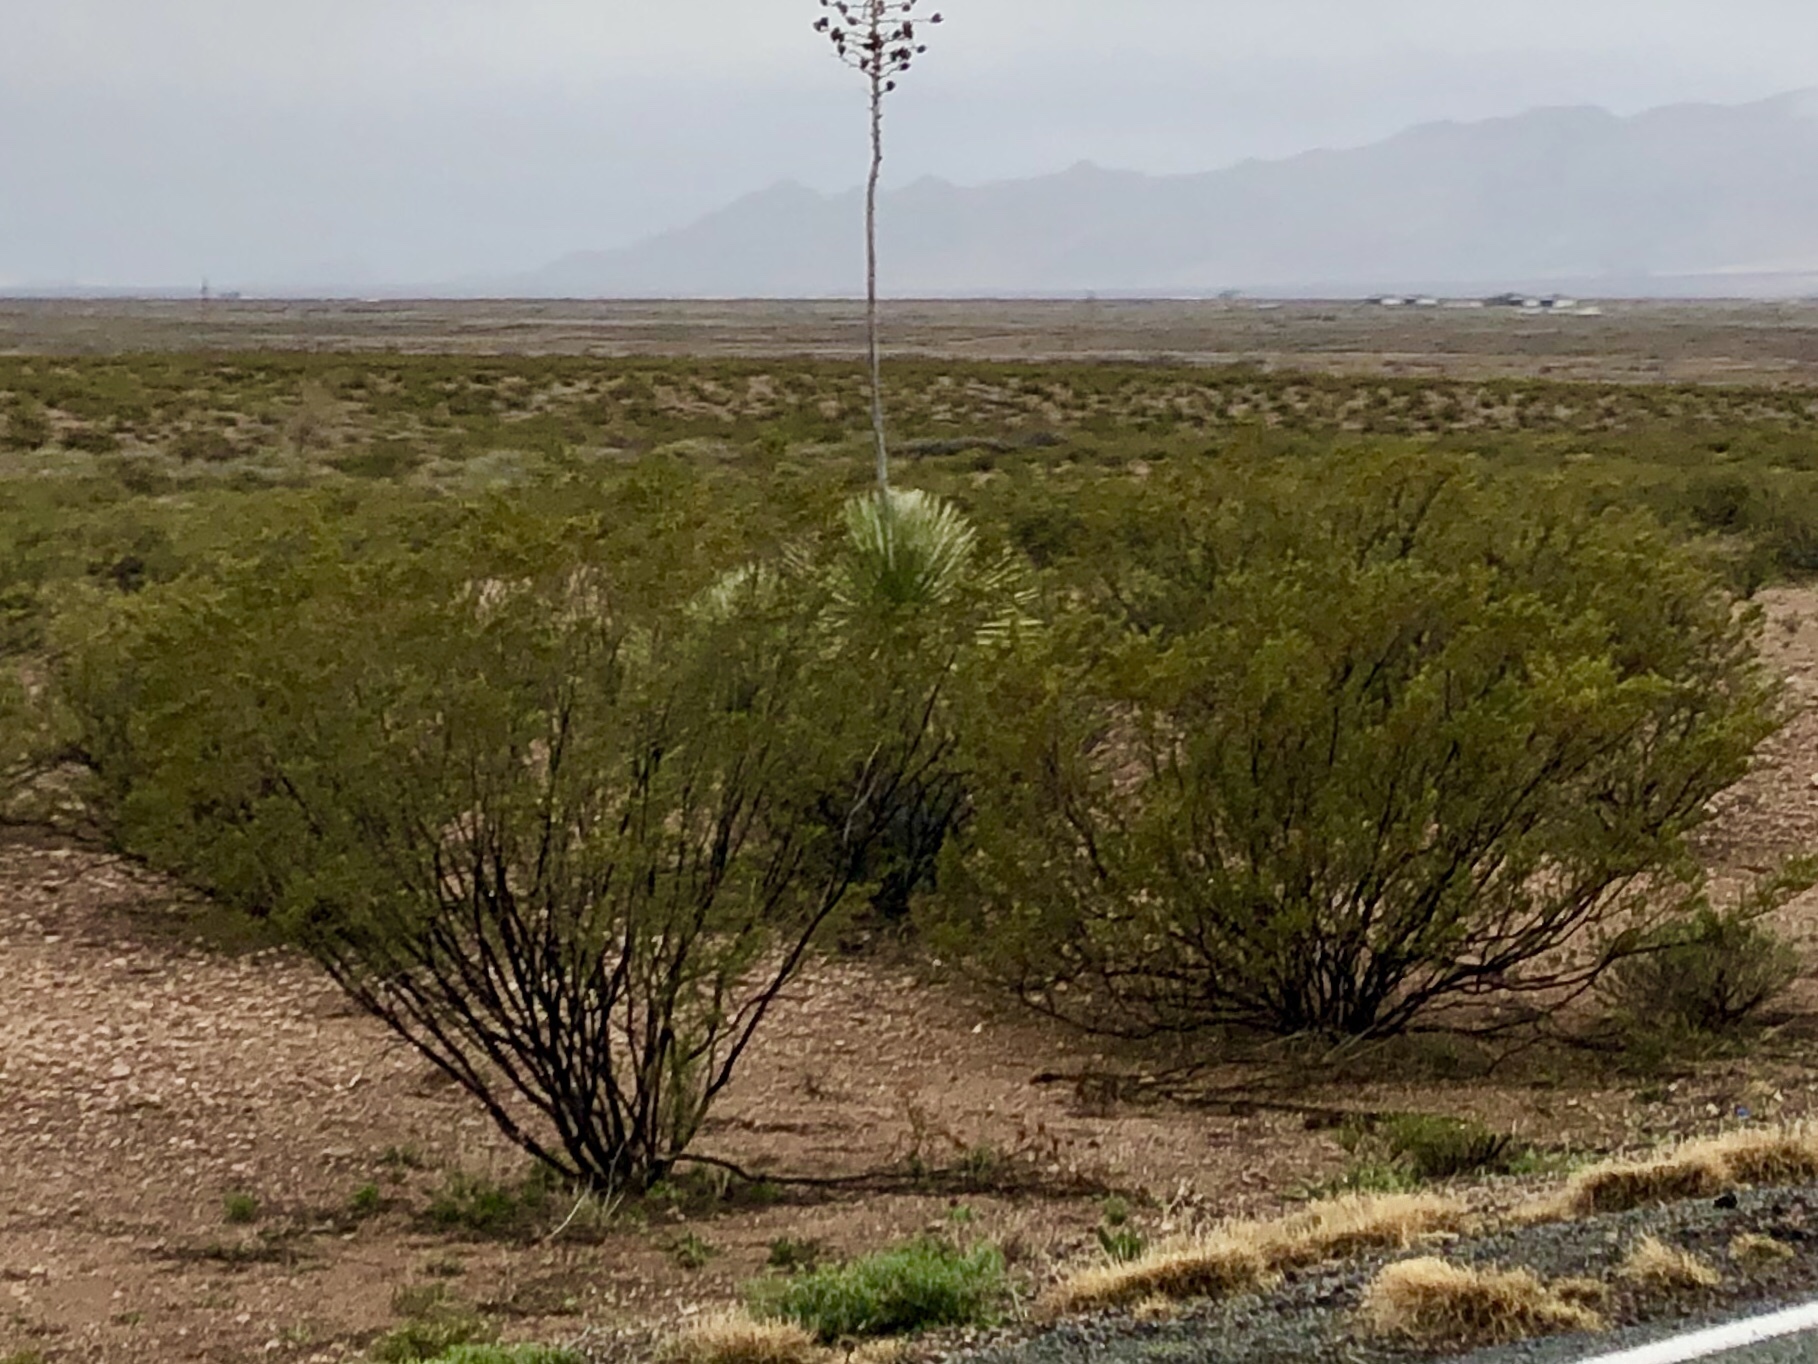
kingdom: Plantae
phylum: Tracheophyta
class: Magnoliopsida
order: Zygophyllales
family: Zygophyllaceae
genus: Larrea
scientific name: Larrea tridentata
